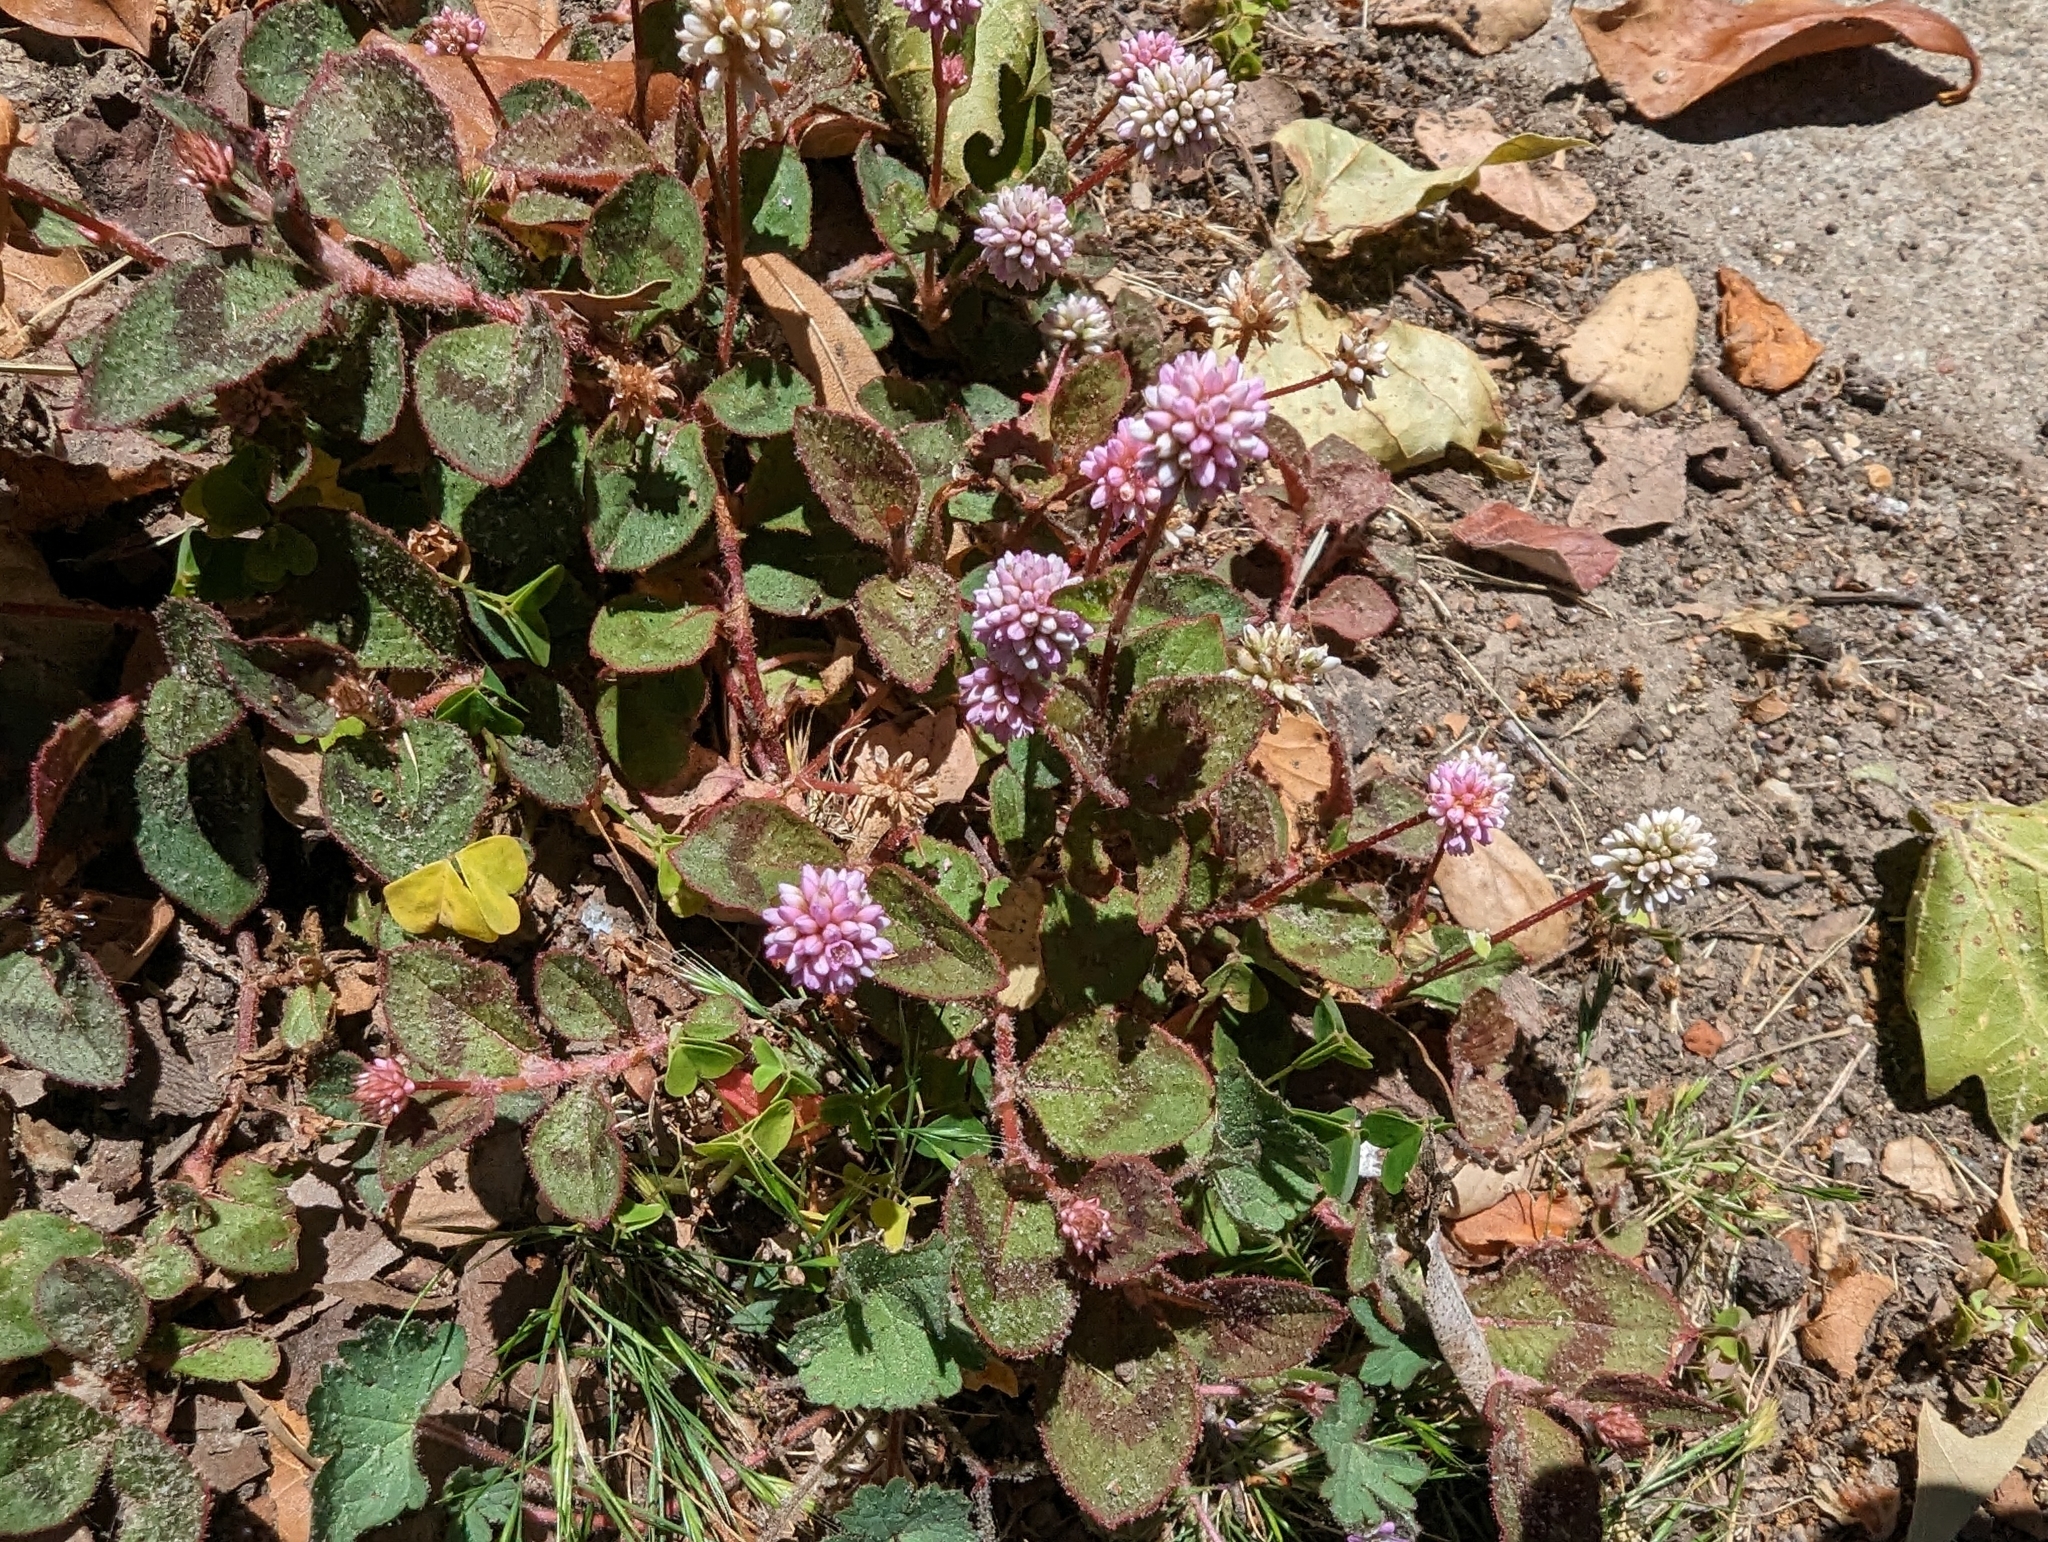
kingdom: Plantae
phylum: Tracheophyta
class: Magnoliopsida
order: Caryophyllales
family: Polygonaceae
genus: Persicaria
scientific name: Persicaria capitata
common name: Pinkhead smartweed
